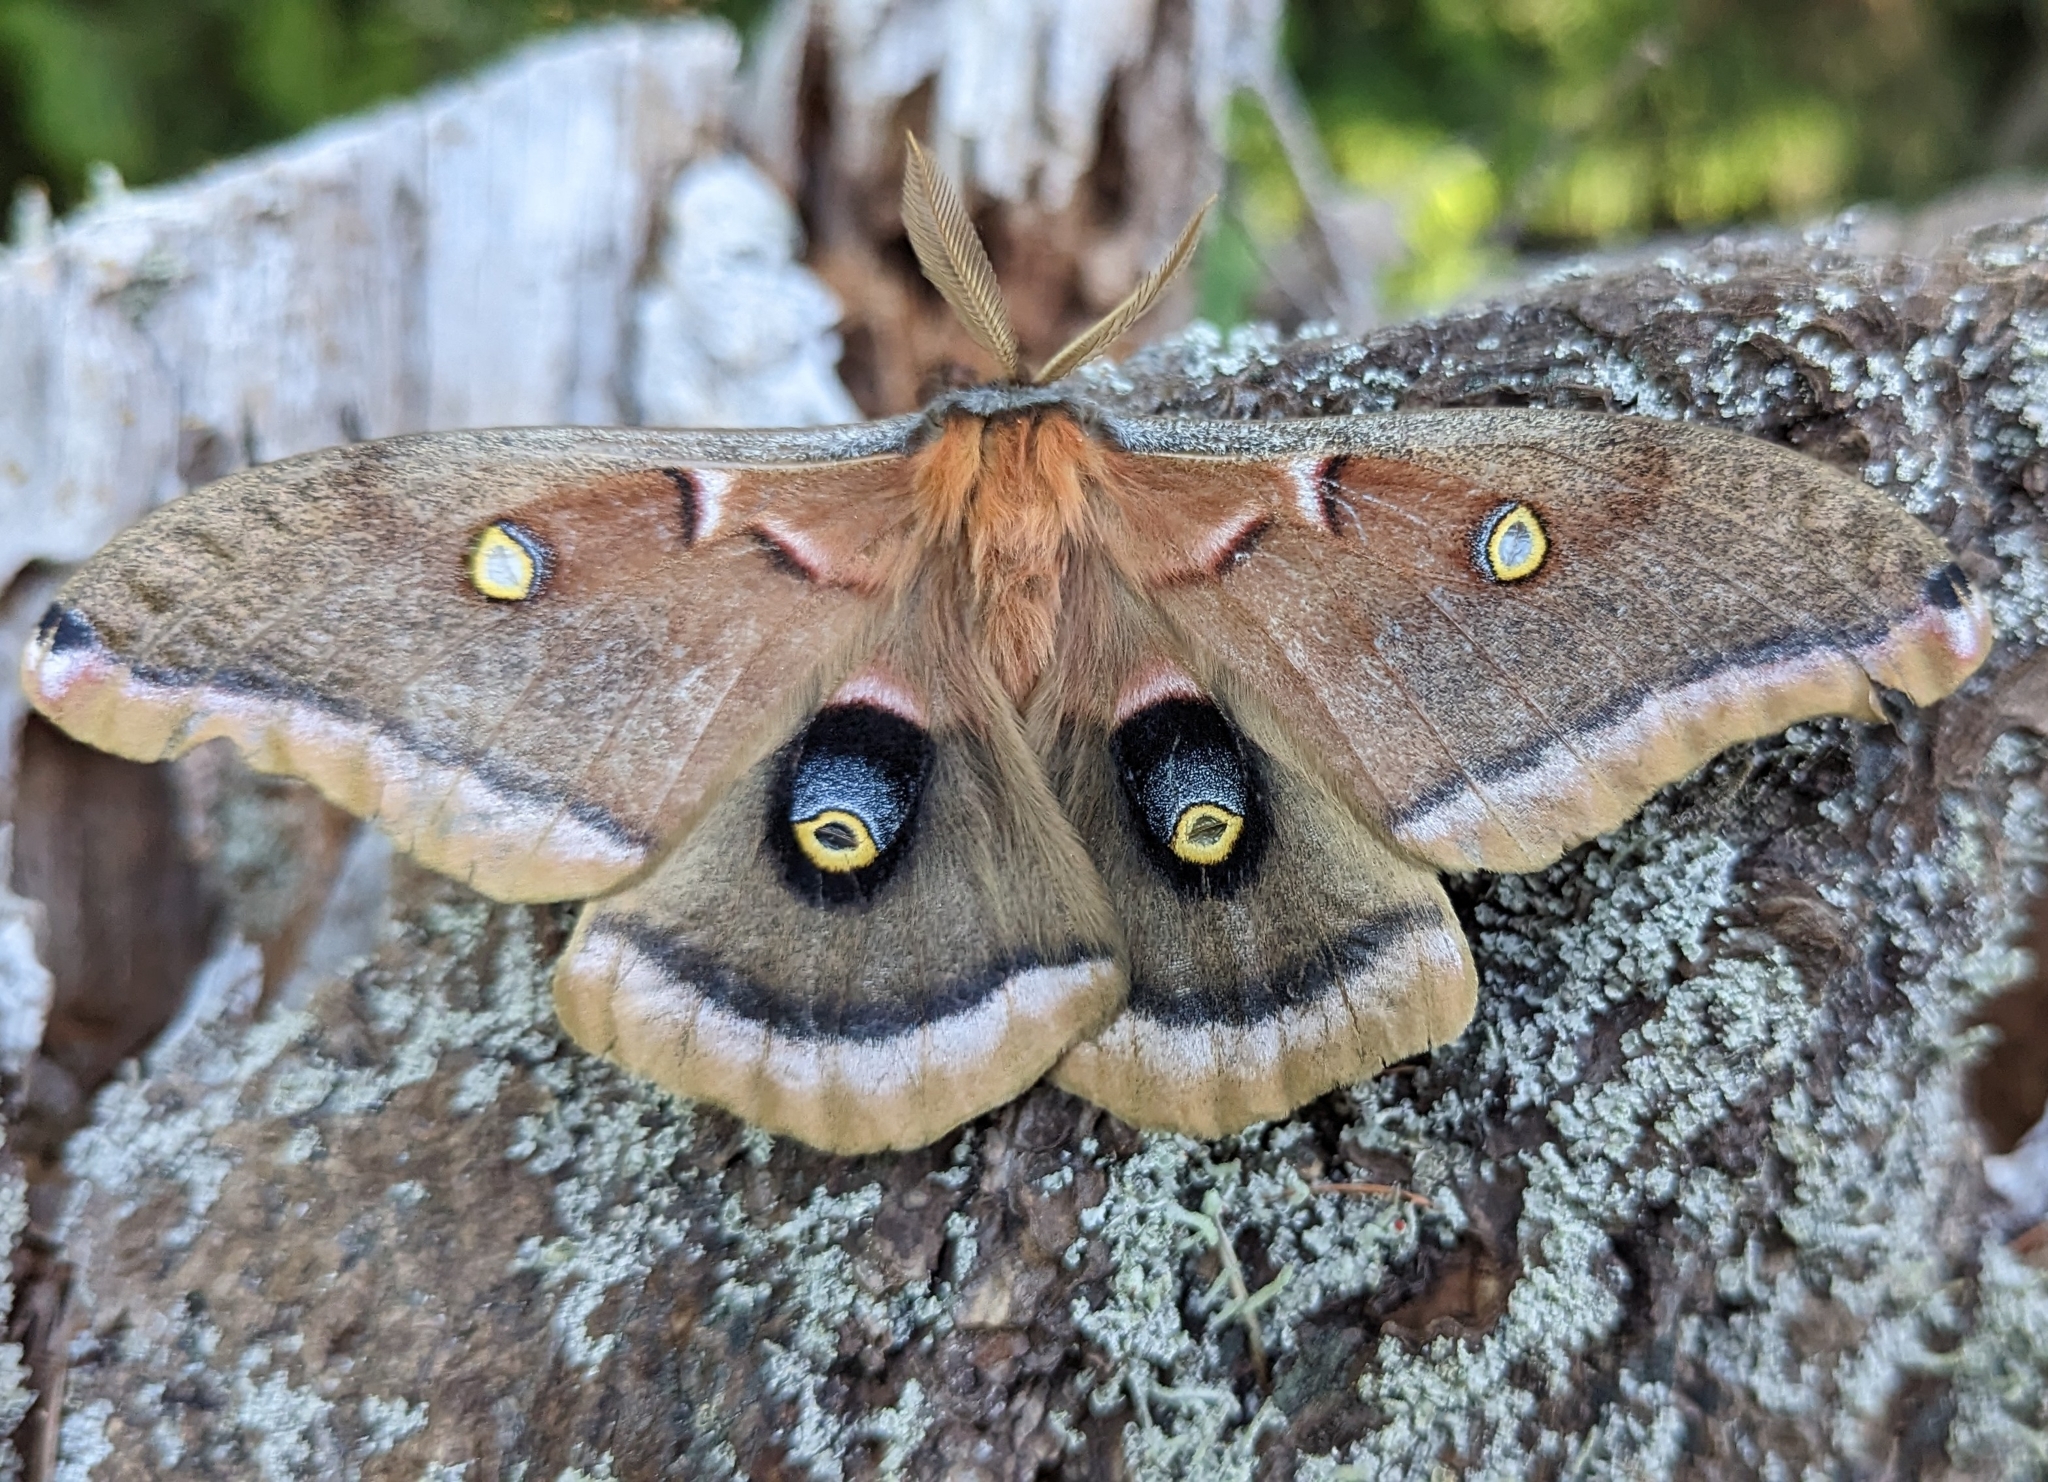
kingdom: Animalia
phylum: Arthropoda
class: Insecta
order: Lepidoptera
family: Saturniidae
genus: Antheraea
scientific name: Antheraea polyphemus
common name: Polyphemus moth
